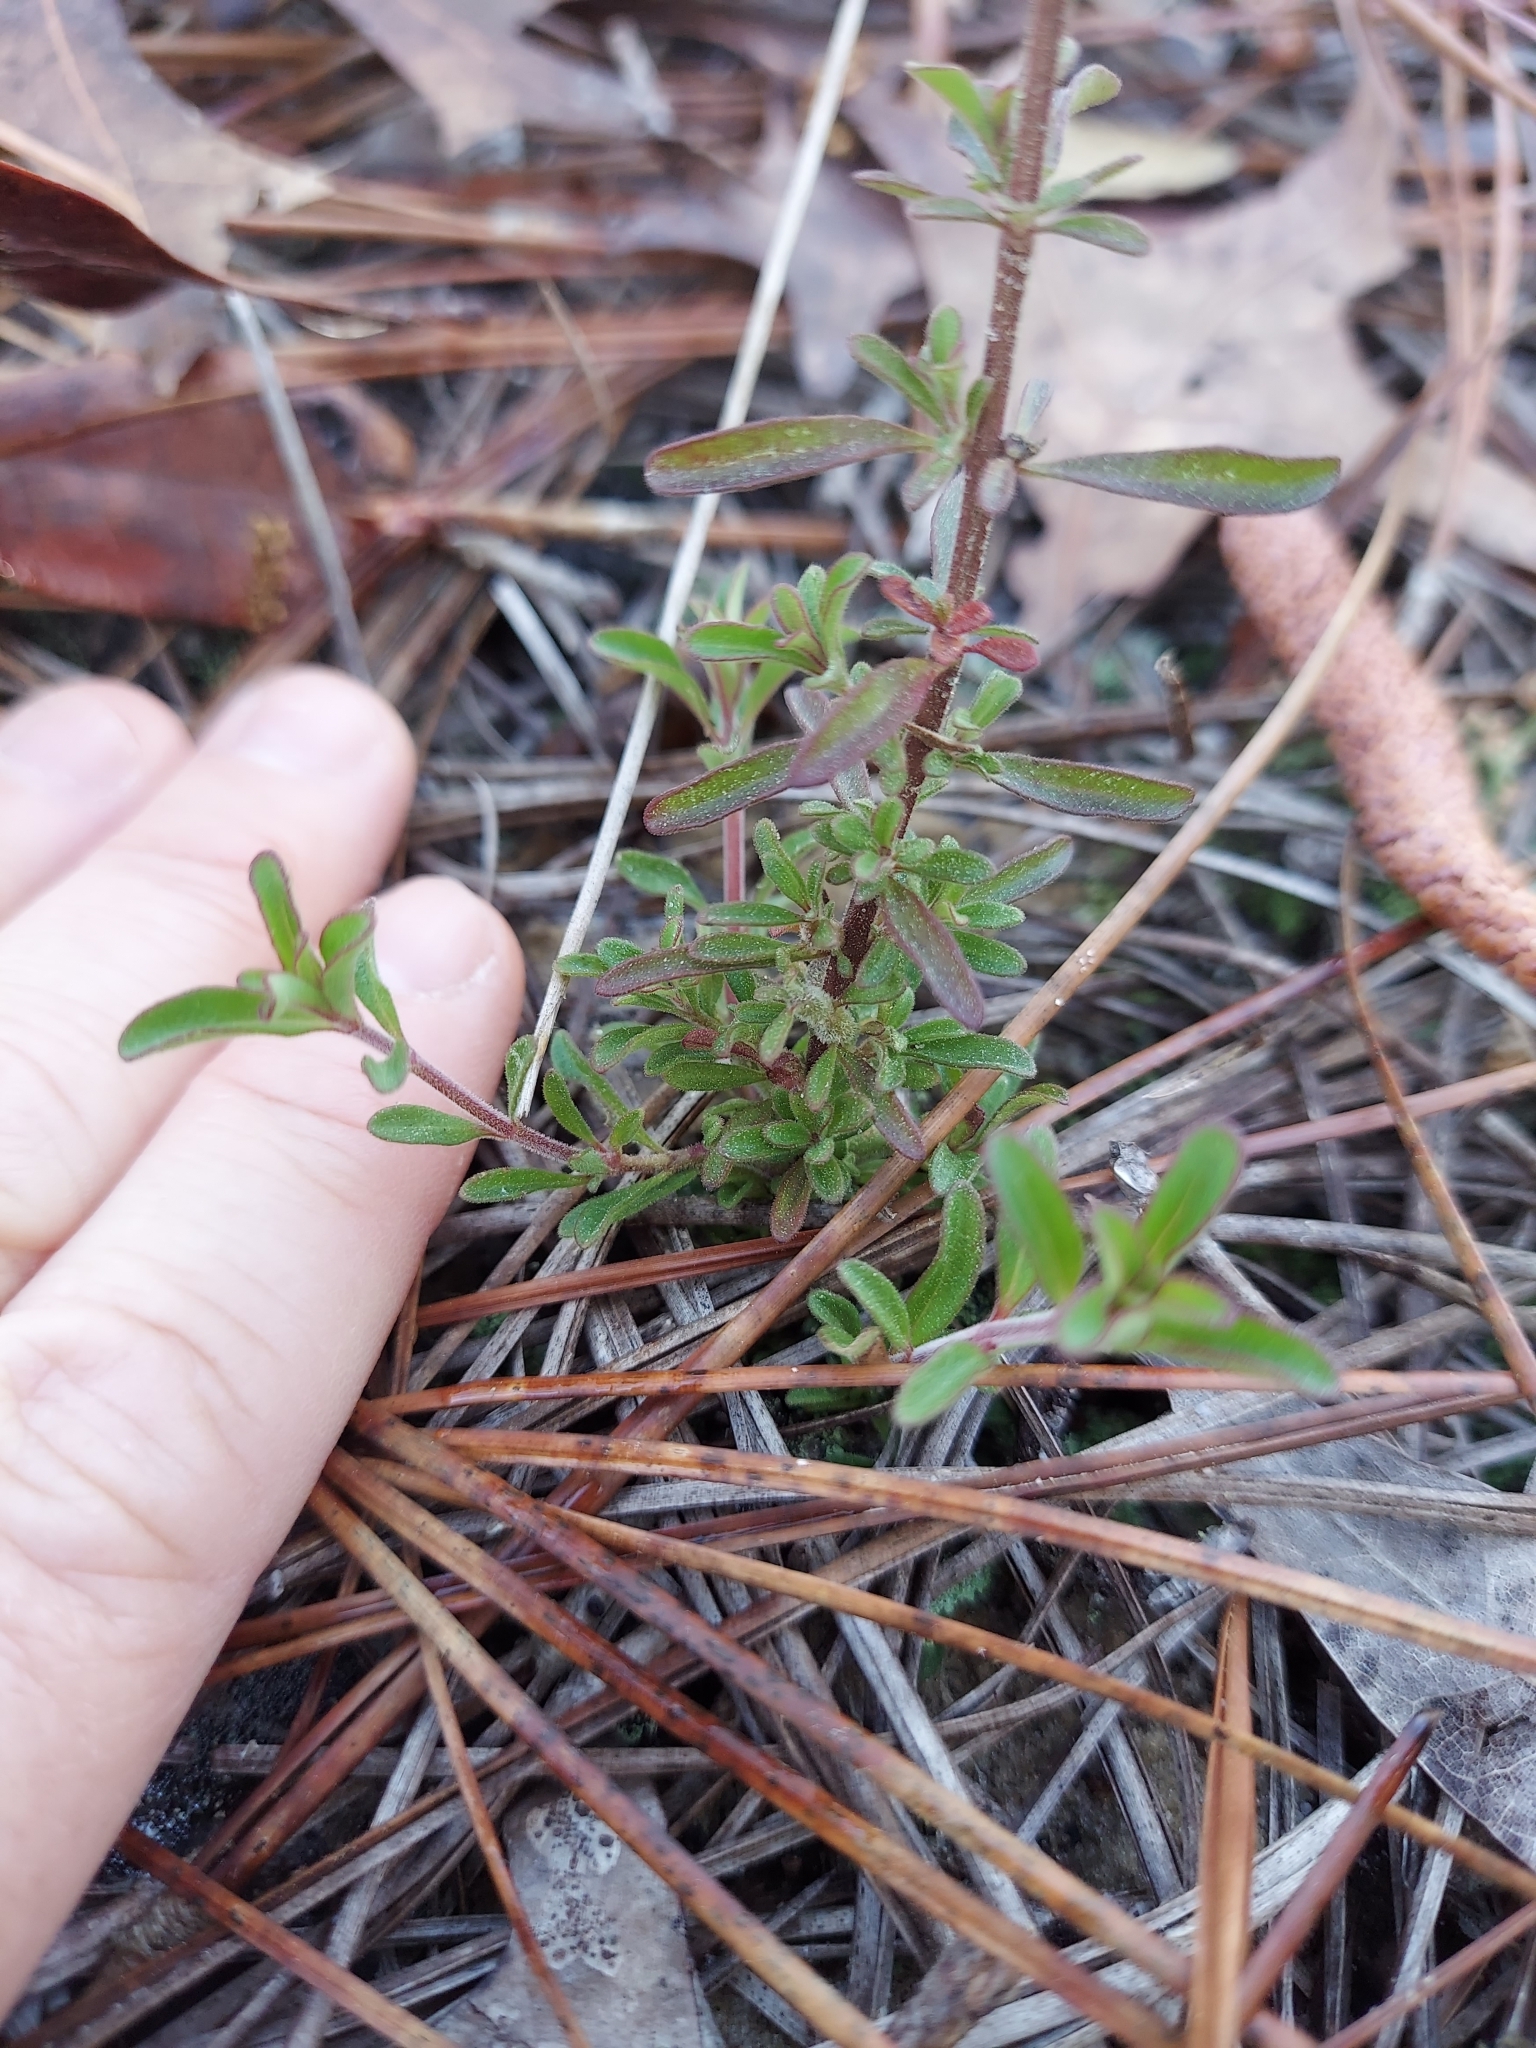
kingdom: Plantae
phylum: Tracheophyta
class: Magnoliopsida
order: Lamiales
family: Lamiaceae
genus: Trichostema
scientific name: Trichostema microphyllum
